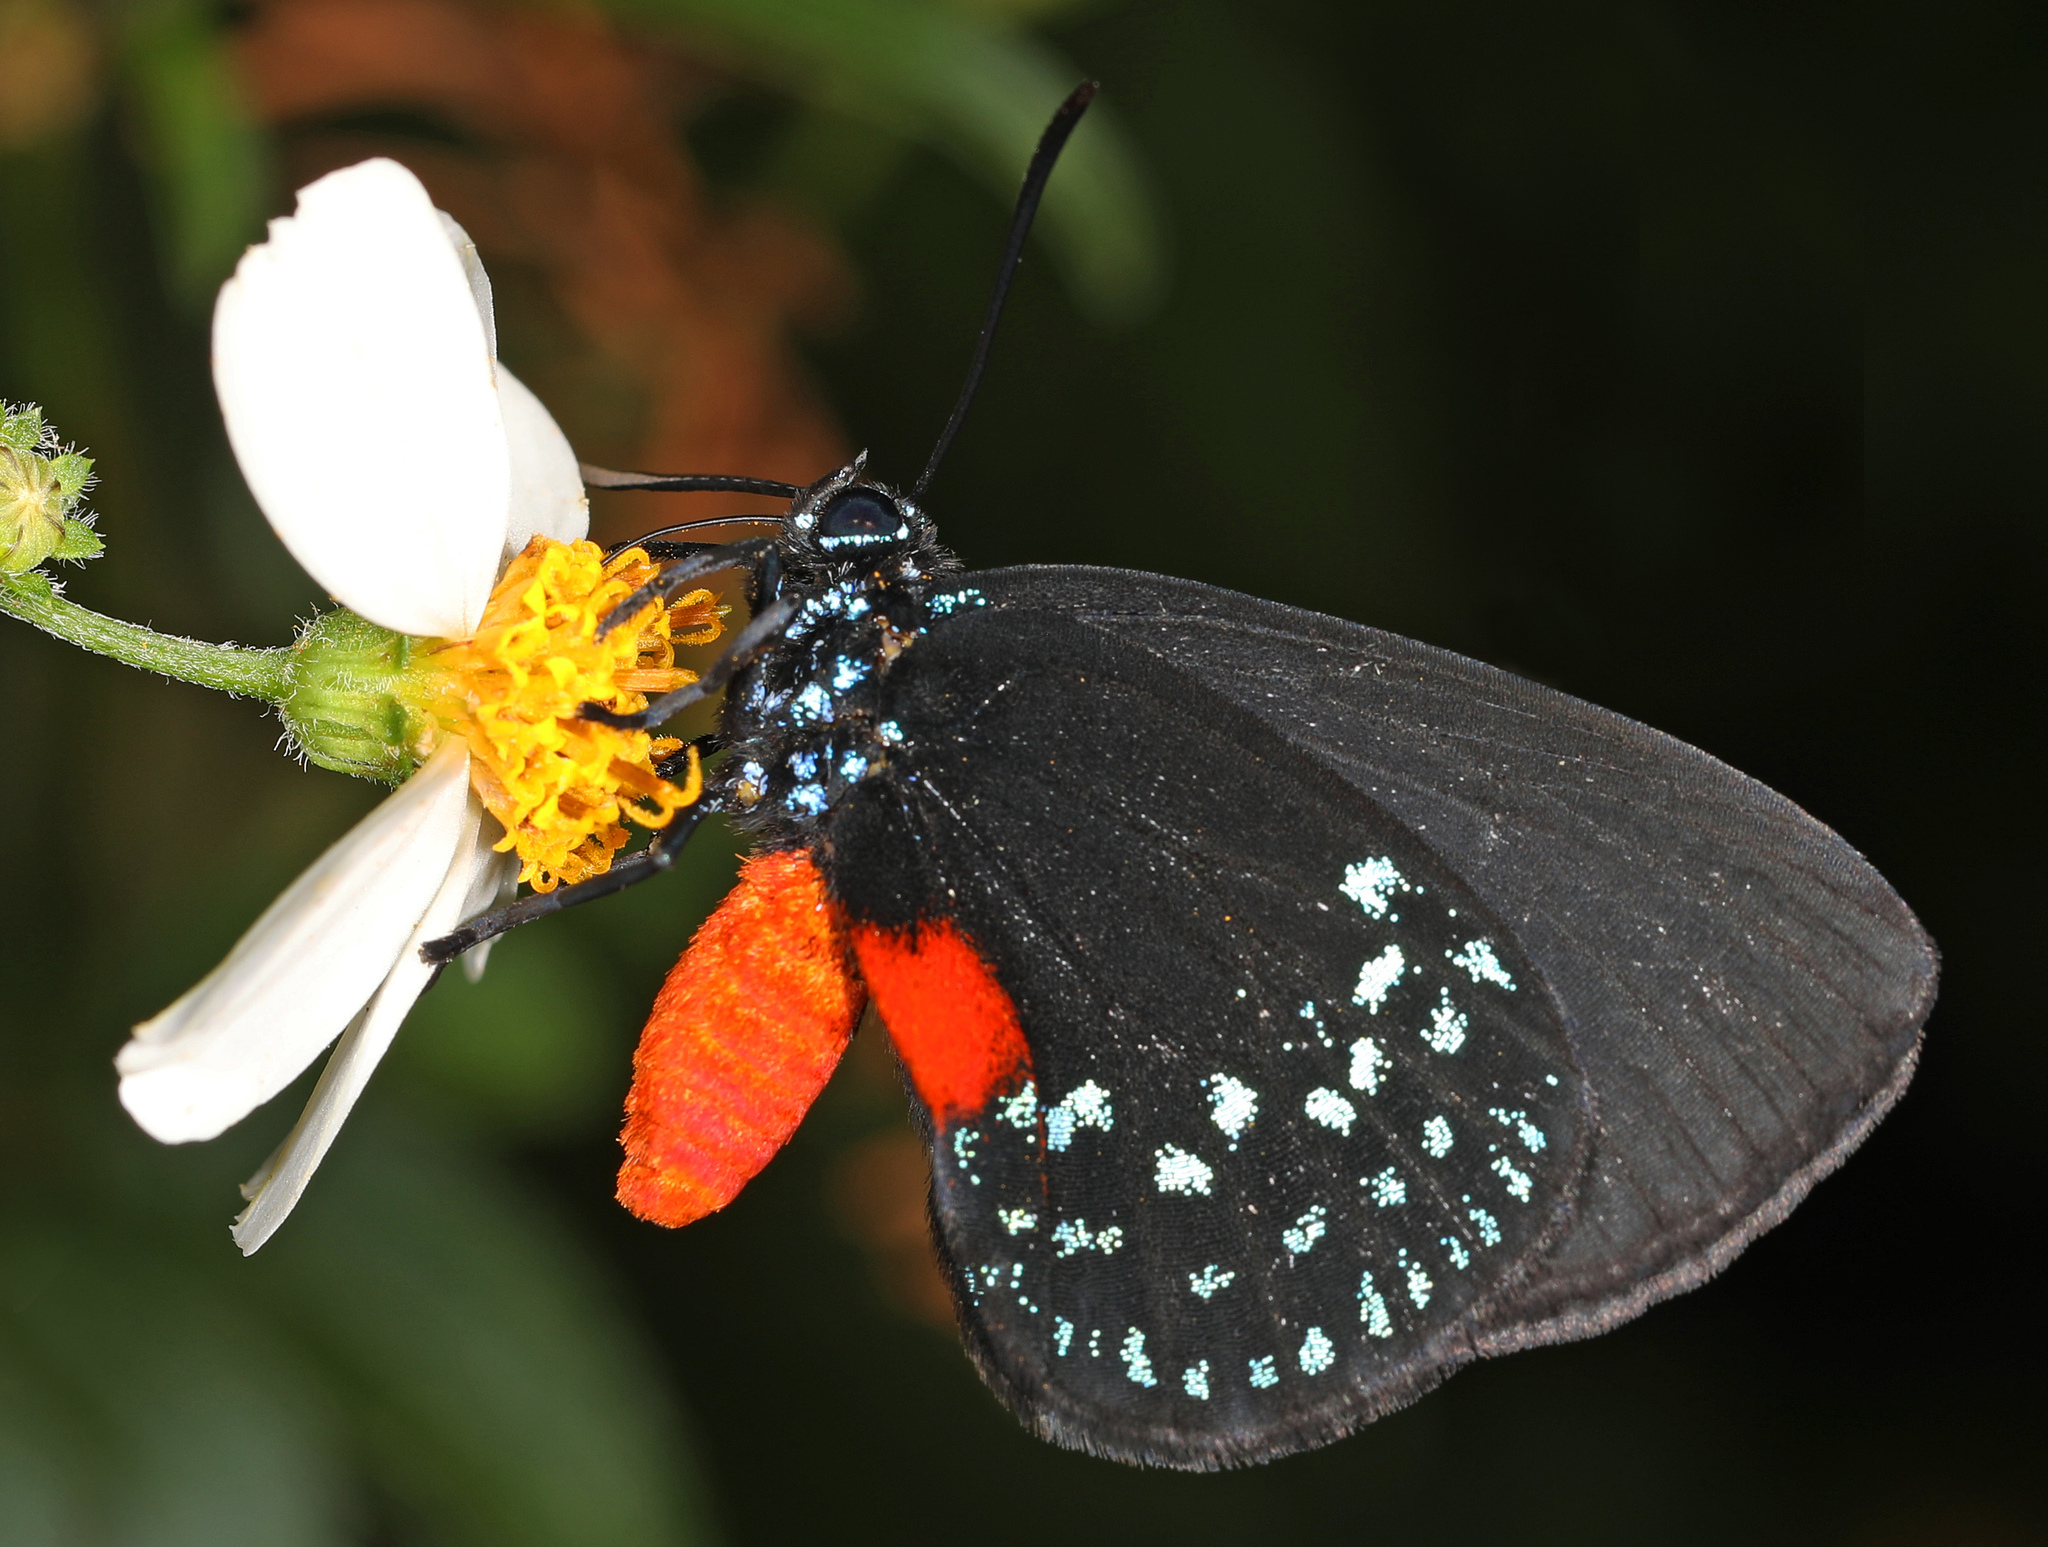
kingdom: Animalia
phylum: Arthropoda
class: Insecta
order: Lepidoptera
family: Lycaenidae
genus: Eumaeus
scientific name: Eumaeus atala
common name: Atala
